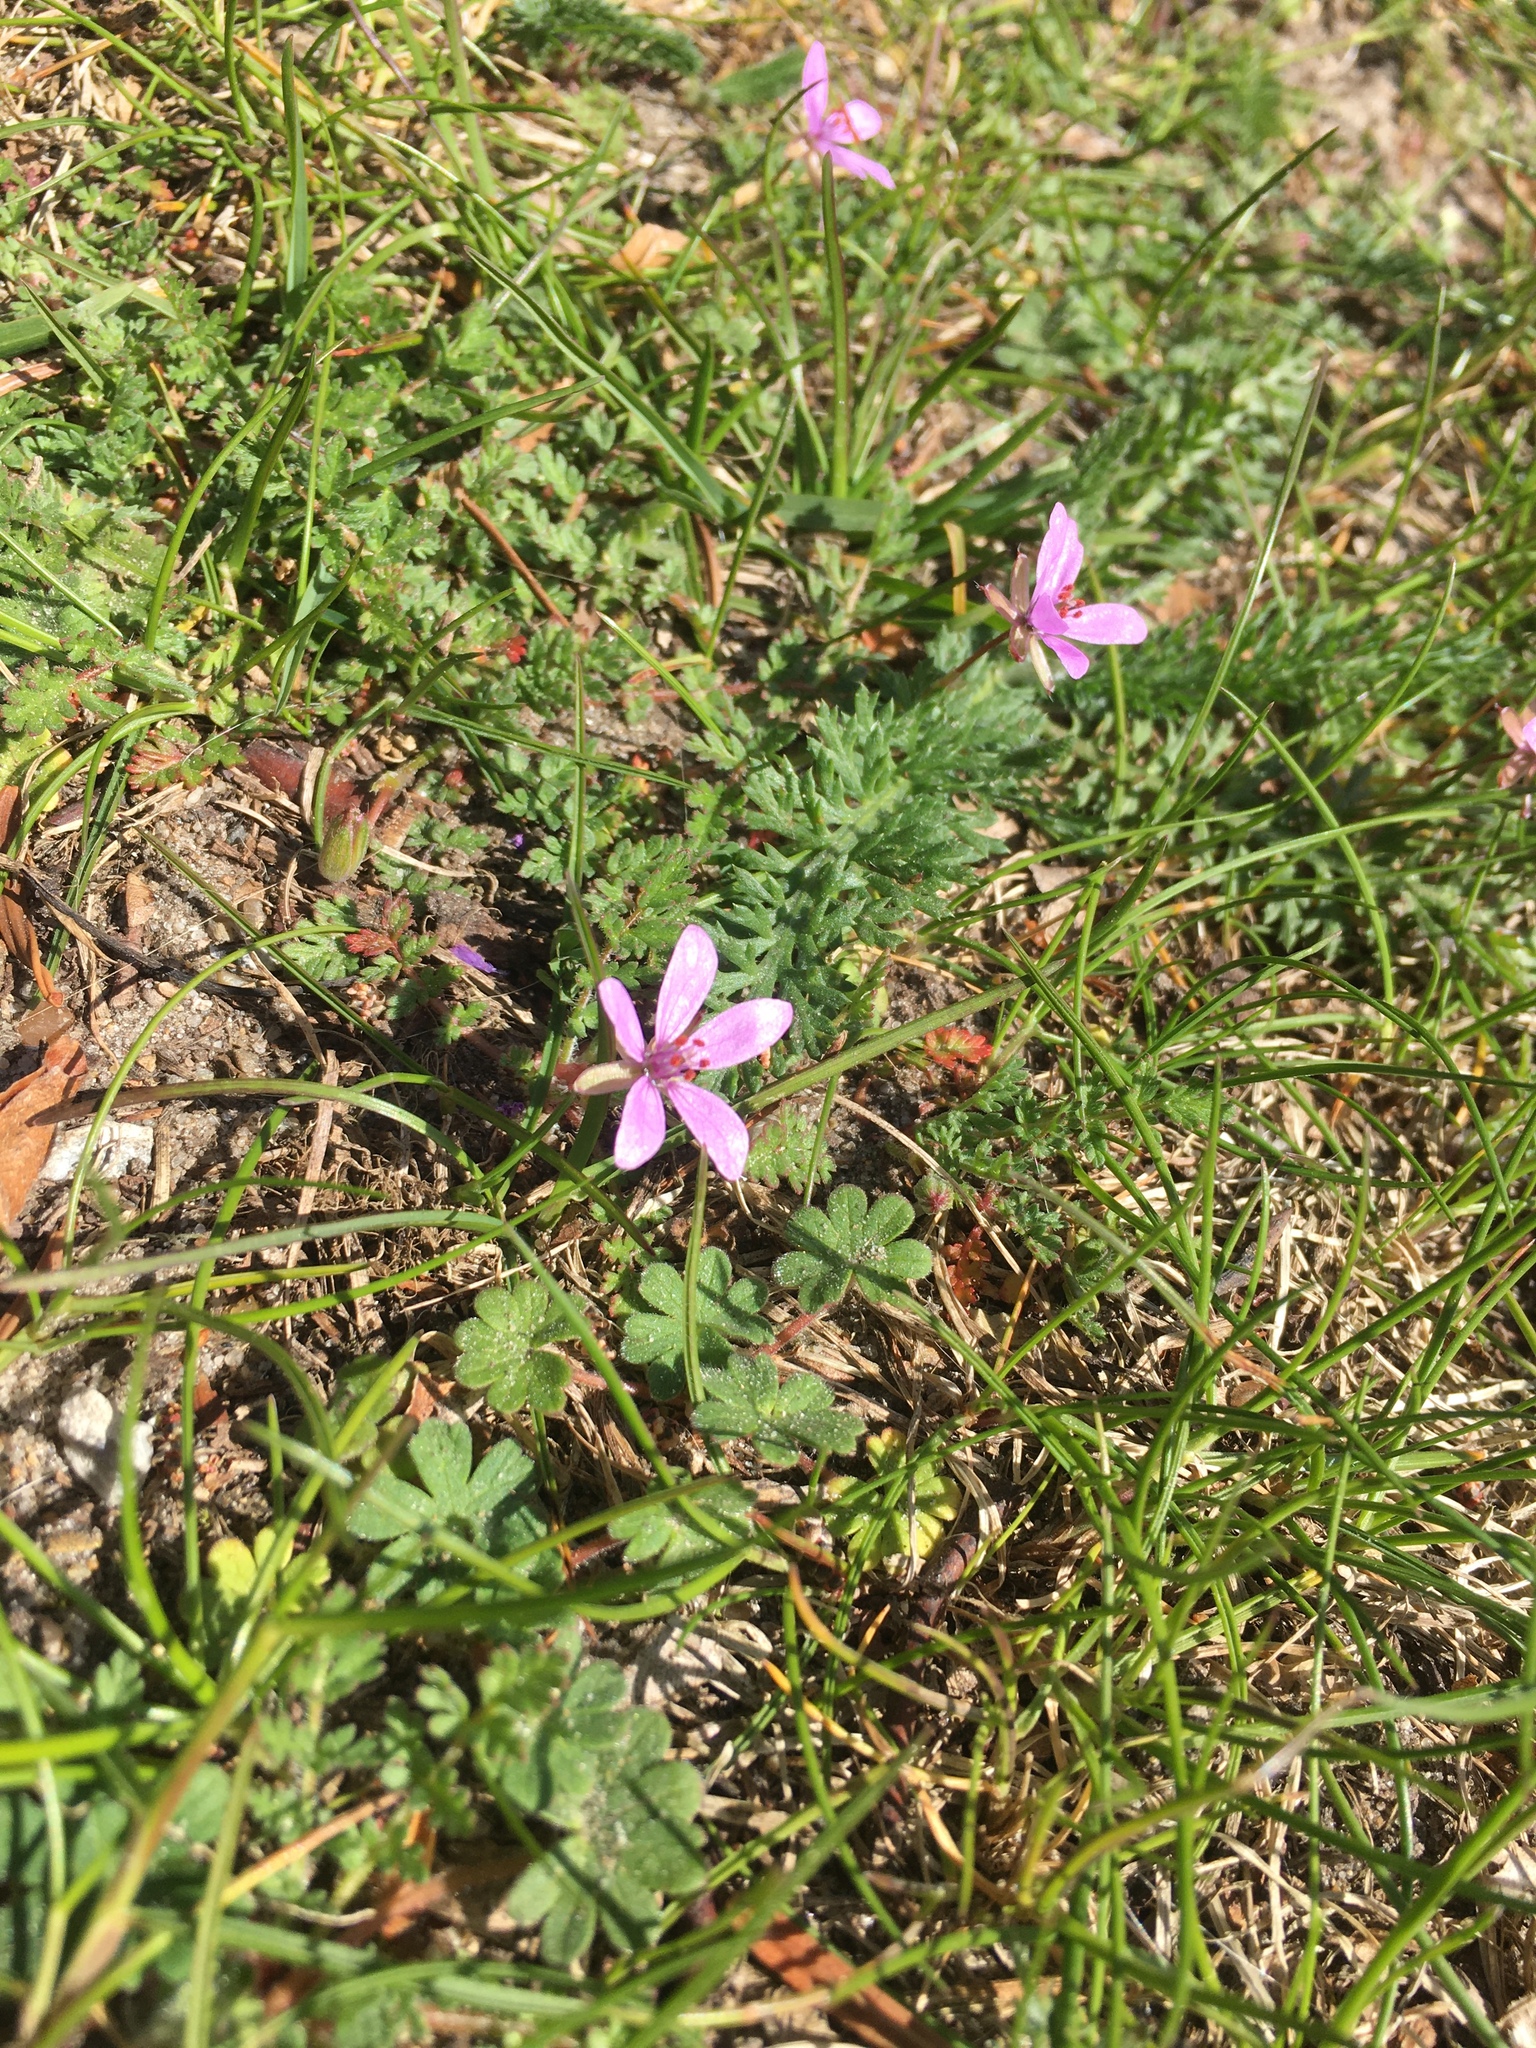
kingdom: Plantae
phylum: Tracheophyta
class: Magnoliopsida
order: Geraniales
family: Geraniaceae
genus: Erodium
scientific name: Erodium cicutarium
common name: Common stork's-bill
